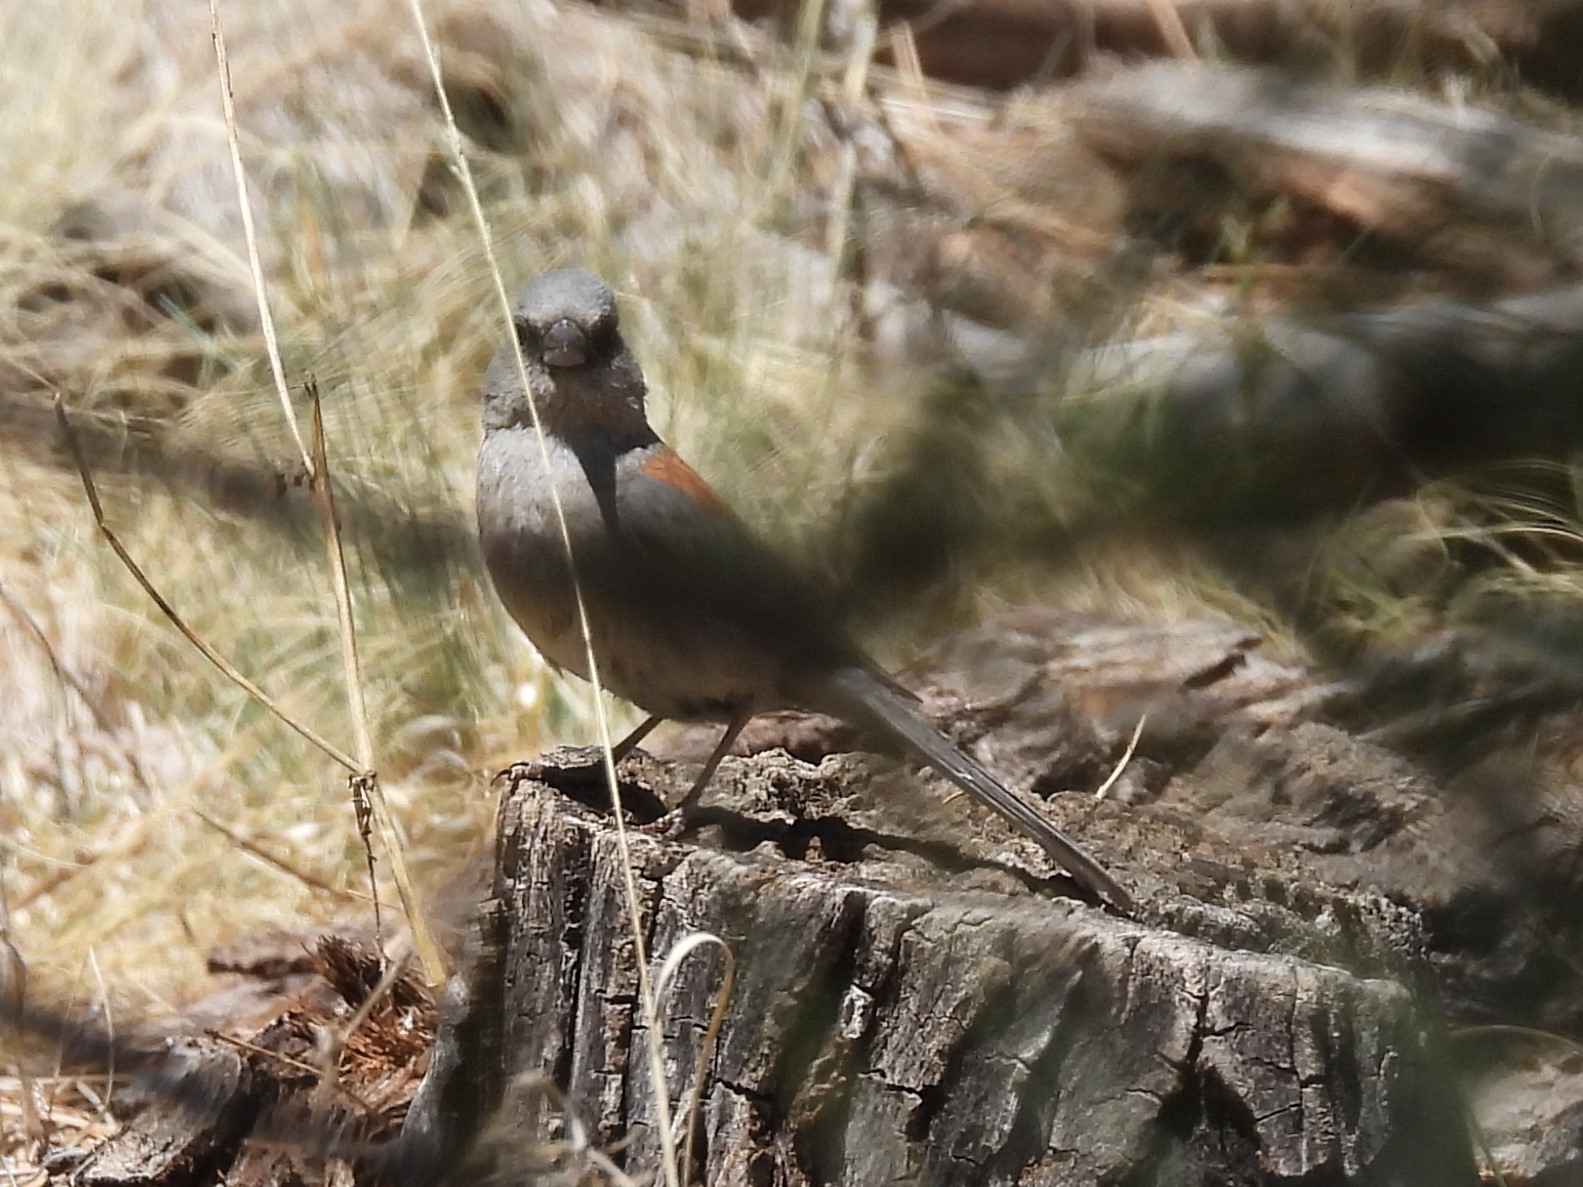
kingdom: Animalia
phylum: Chordata
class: Aves
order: Passeriformes
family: Passerellidae
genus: Junco
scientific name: Junco hyemalis
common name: Dark-eyed junco
